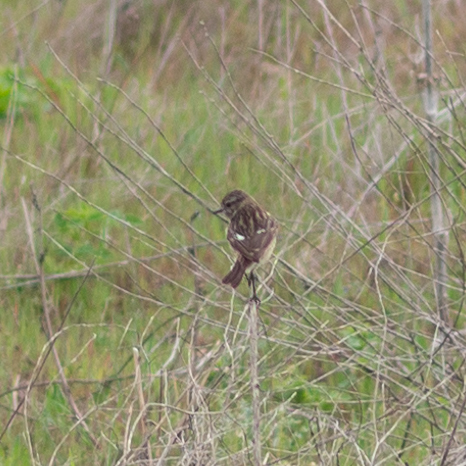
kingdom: Animalia
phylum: Chordata
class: Aves
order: Passeriformes
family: Muscicapidae
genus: Saxicola
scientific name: Saxicola rubicola
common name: European stonechat
